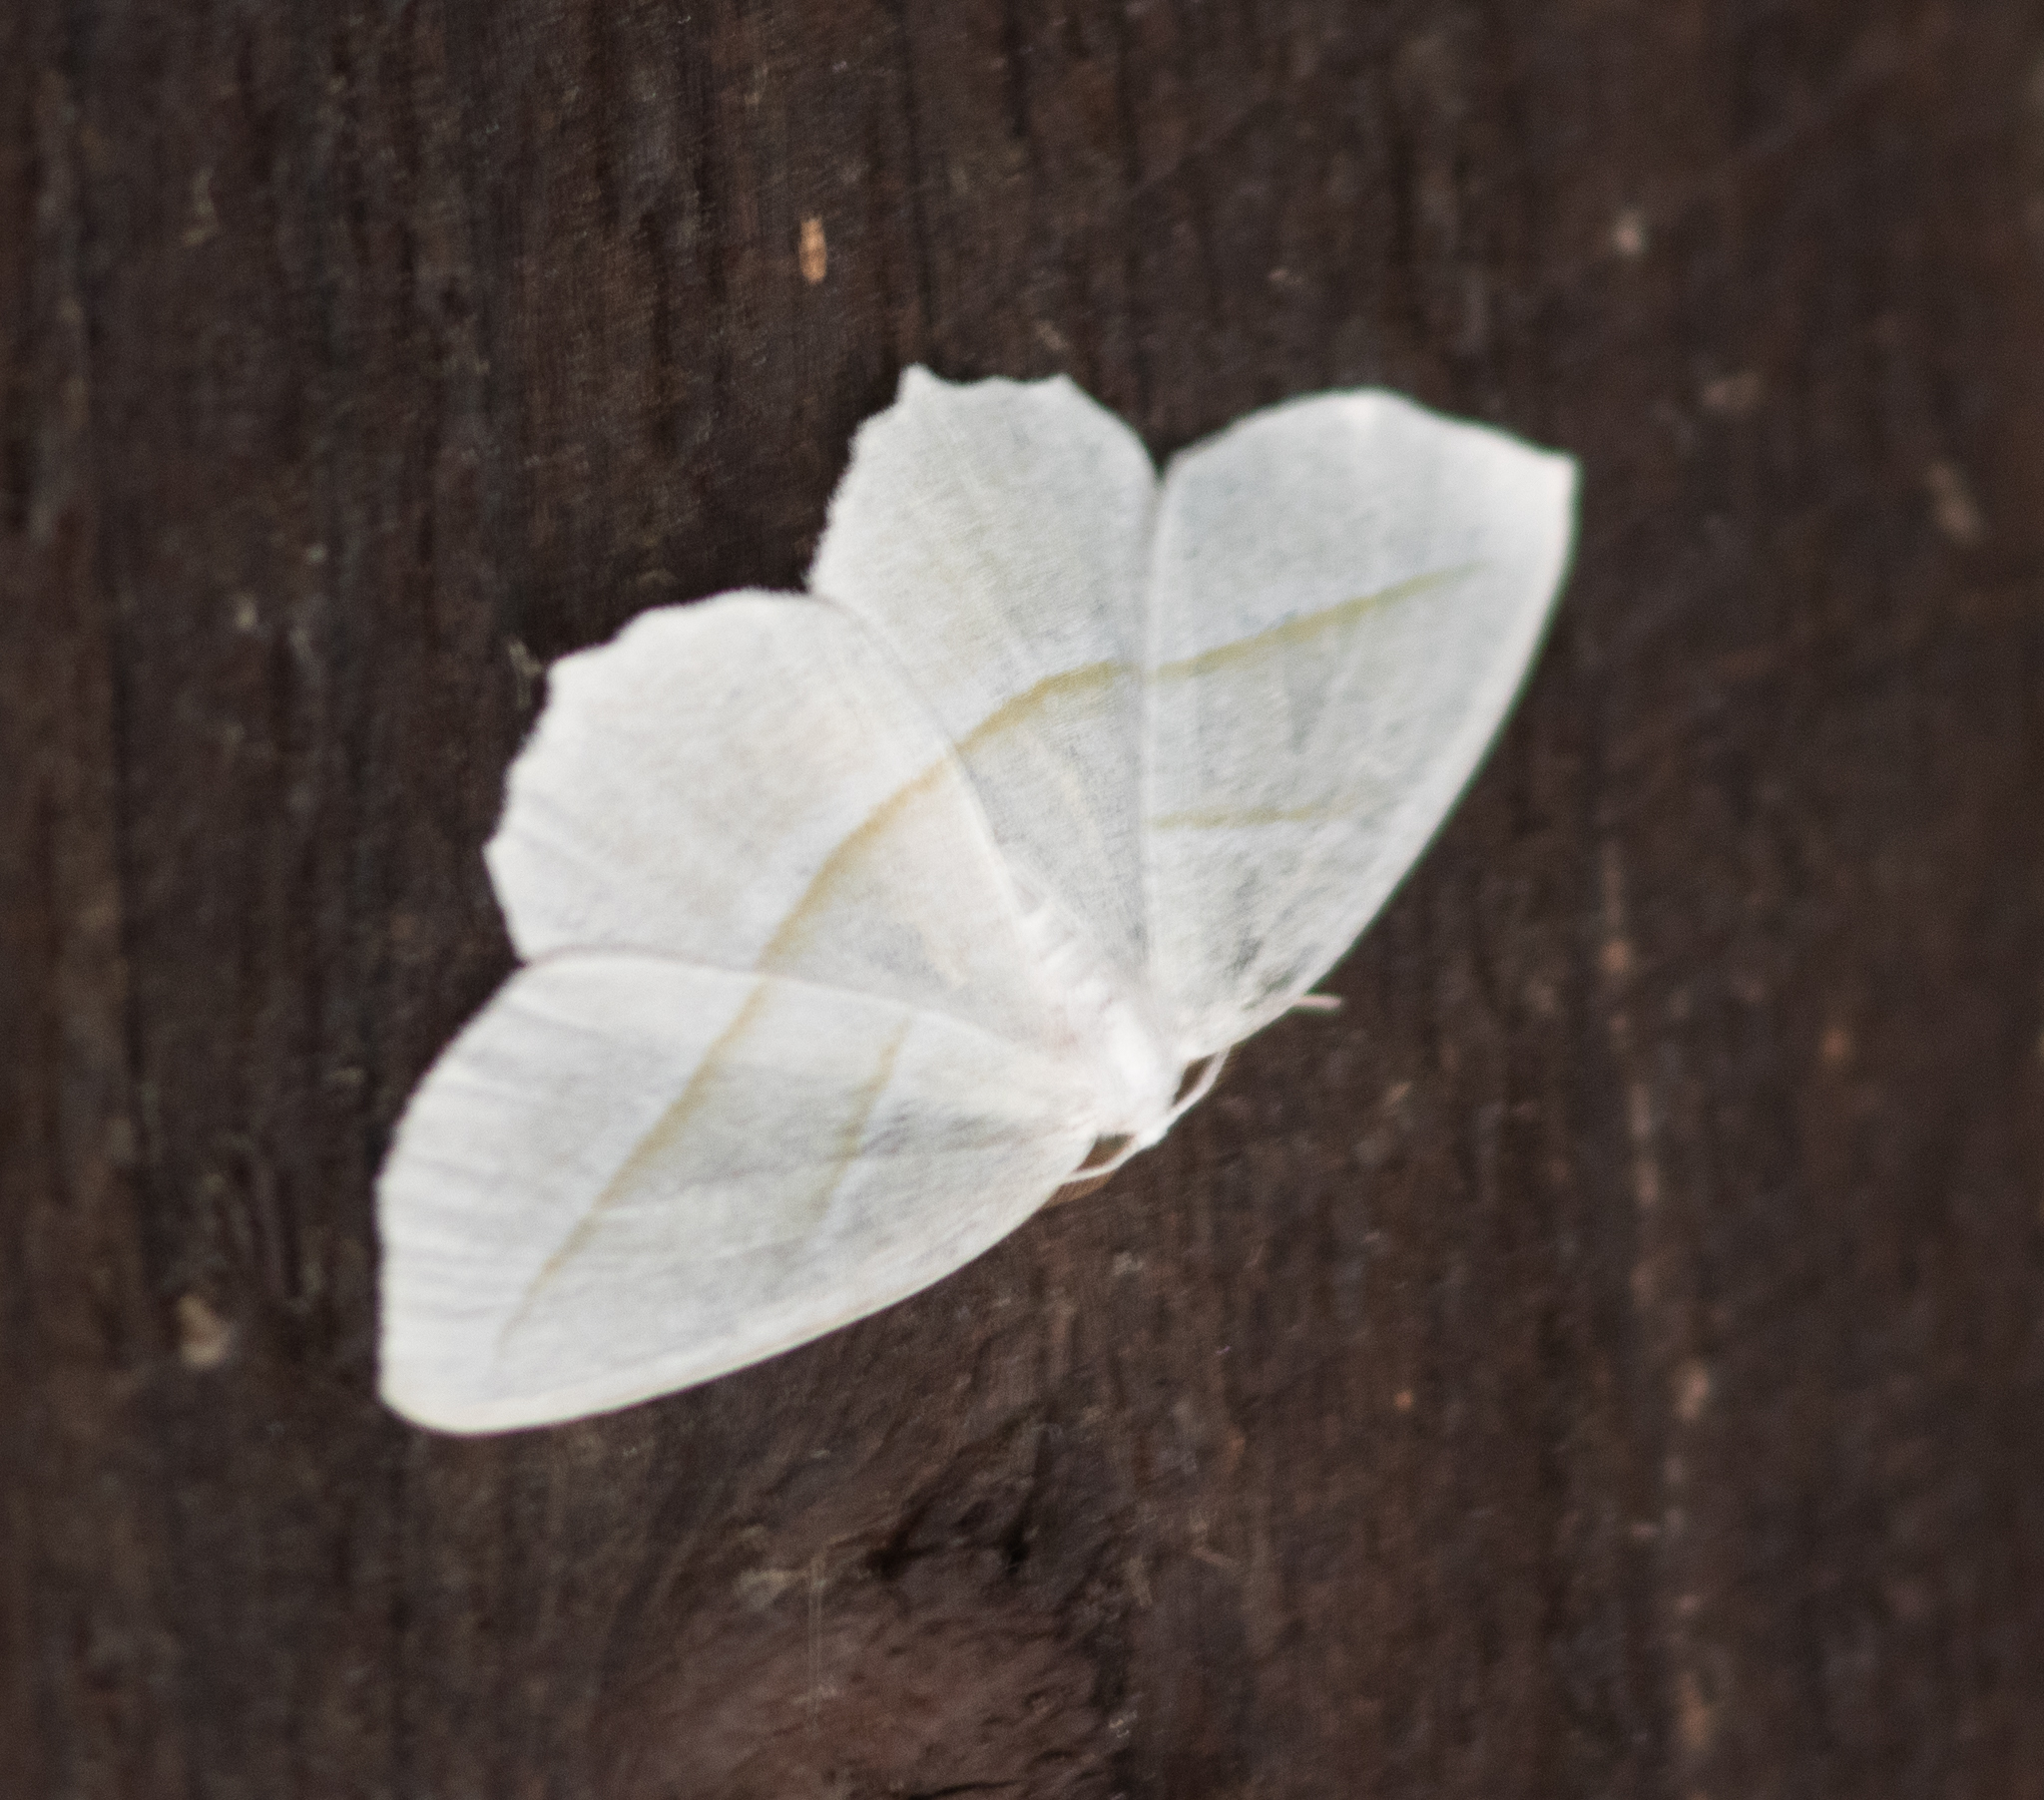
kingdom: Animalia
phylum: Arthropoda
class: Insecta
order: Lepidoptera
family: Geometridae
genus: Campaea
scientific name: Campaea perlata
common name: Fringed looper
